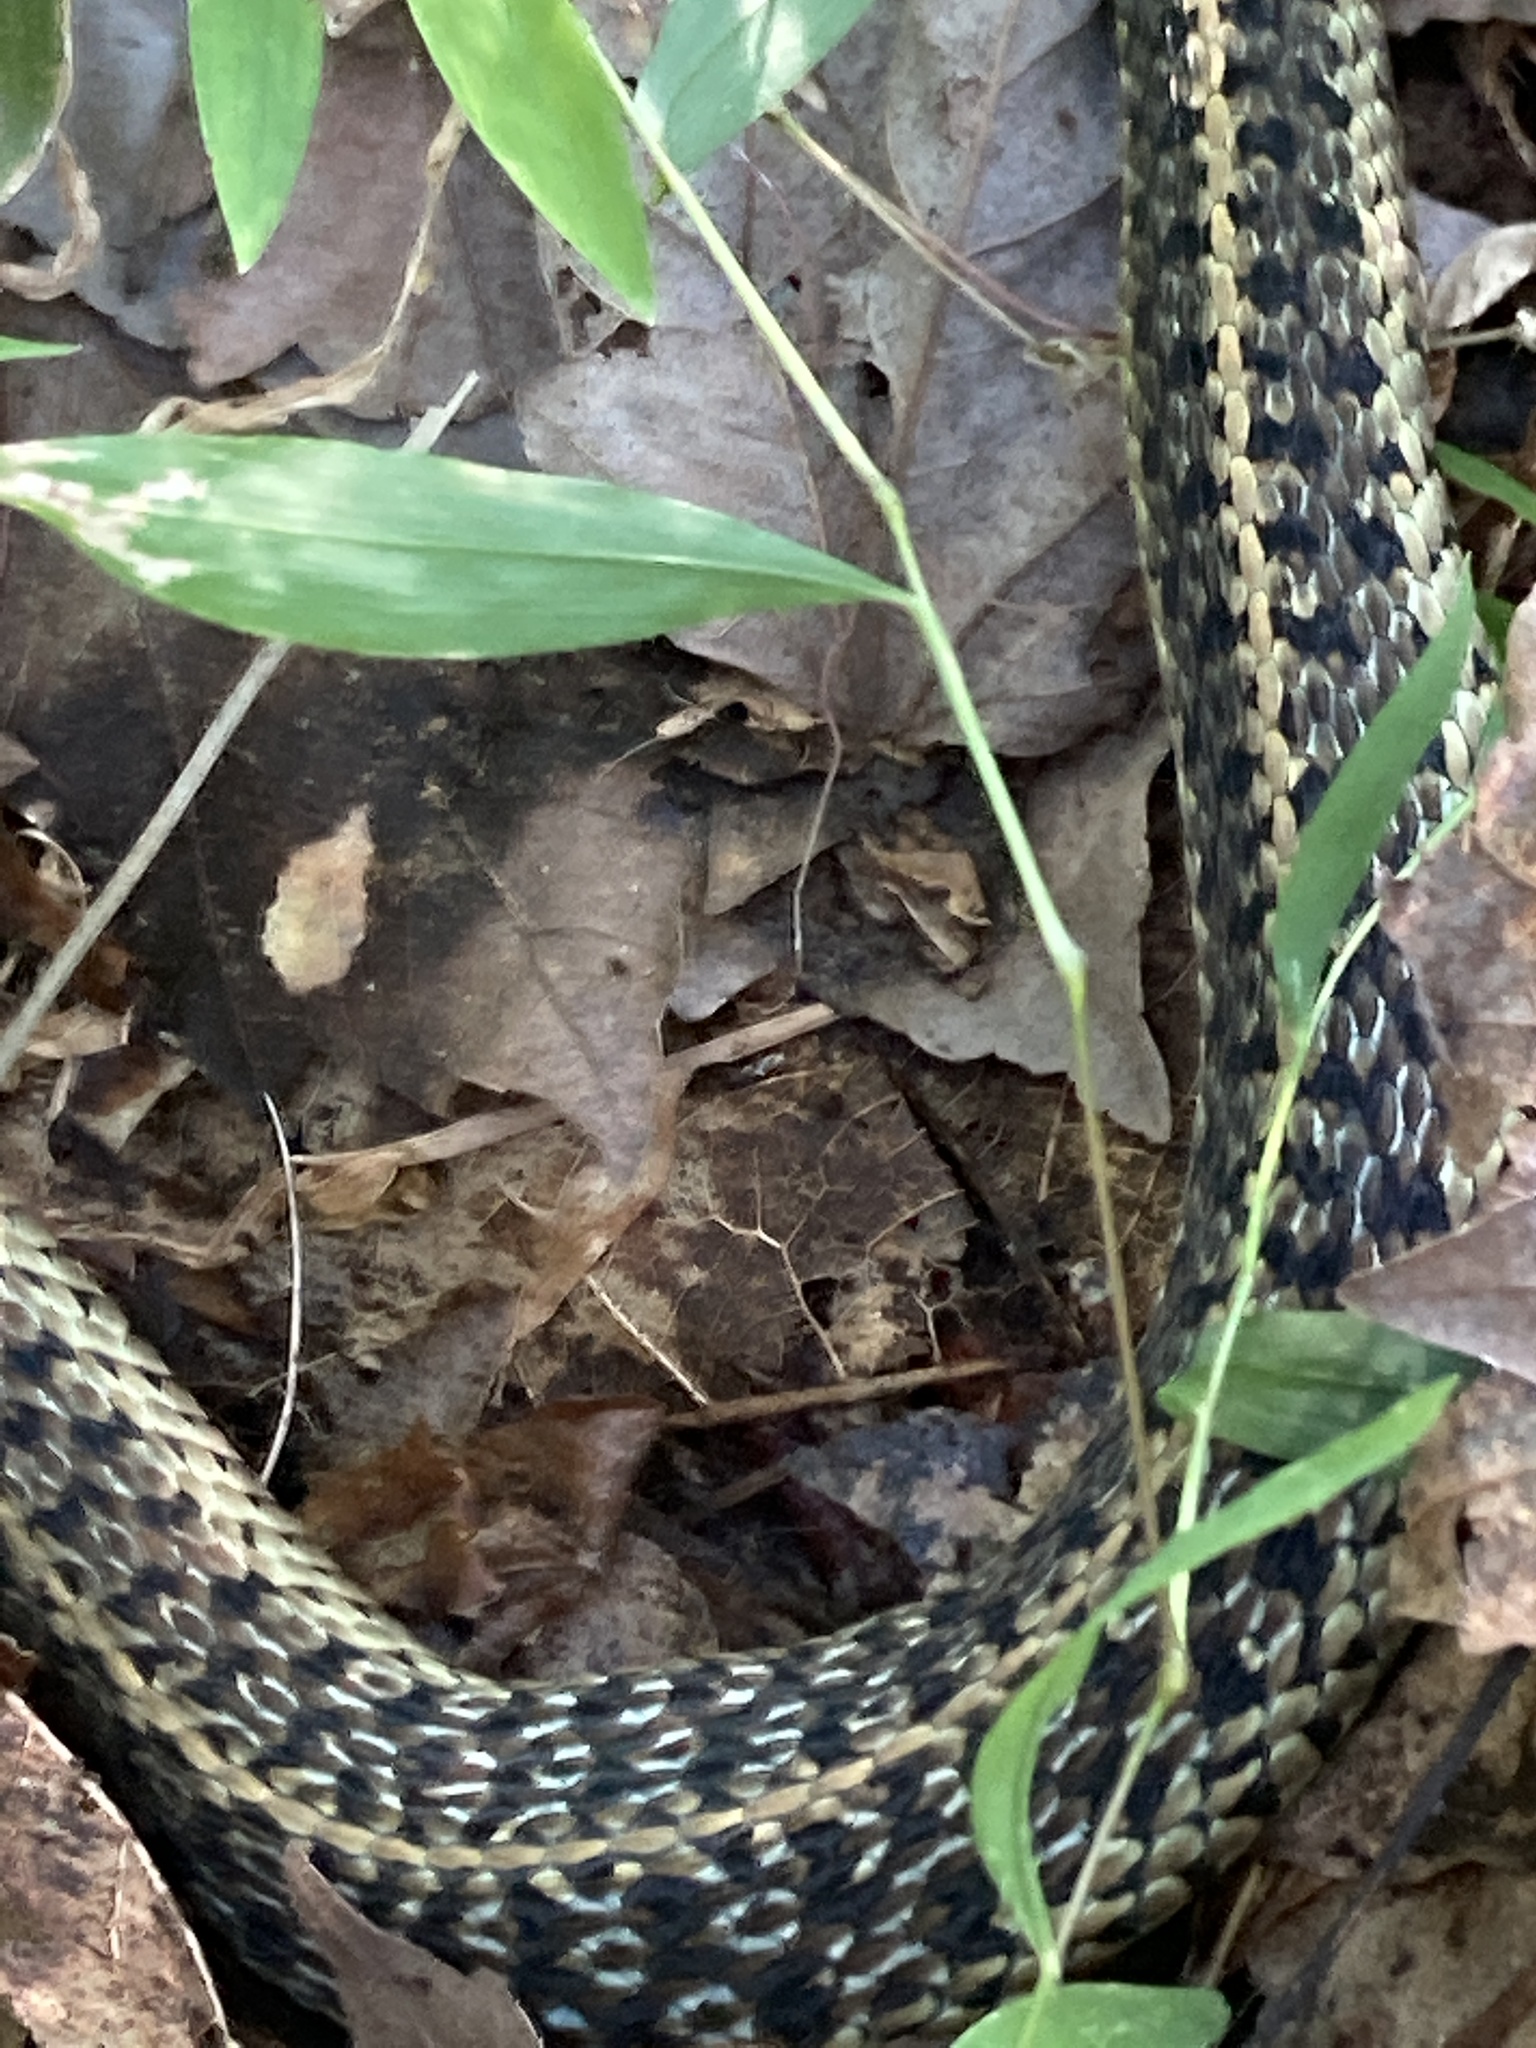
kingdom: Animalia
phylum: Chordata
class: Squamata
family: Colubridae
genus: Thamnophis
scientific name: Thamnophis sirtalis
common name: Common garter snake
